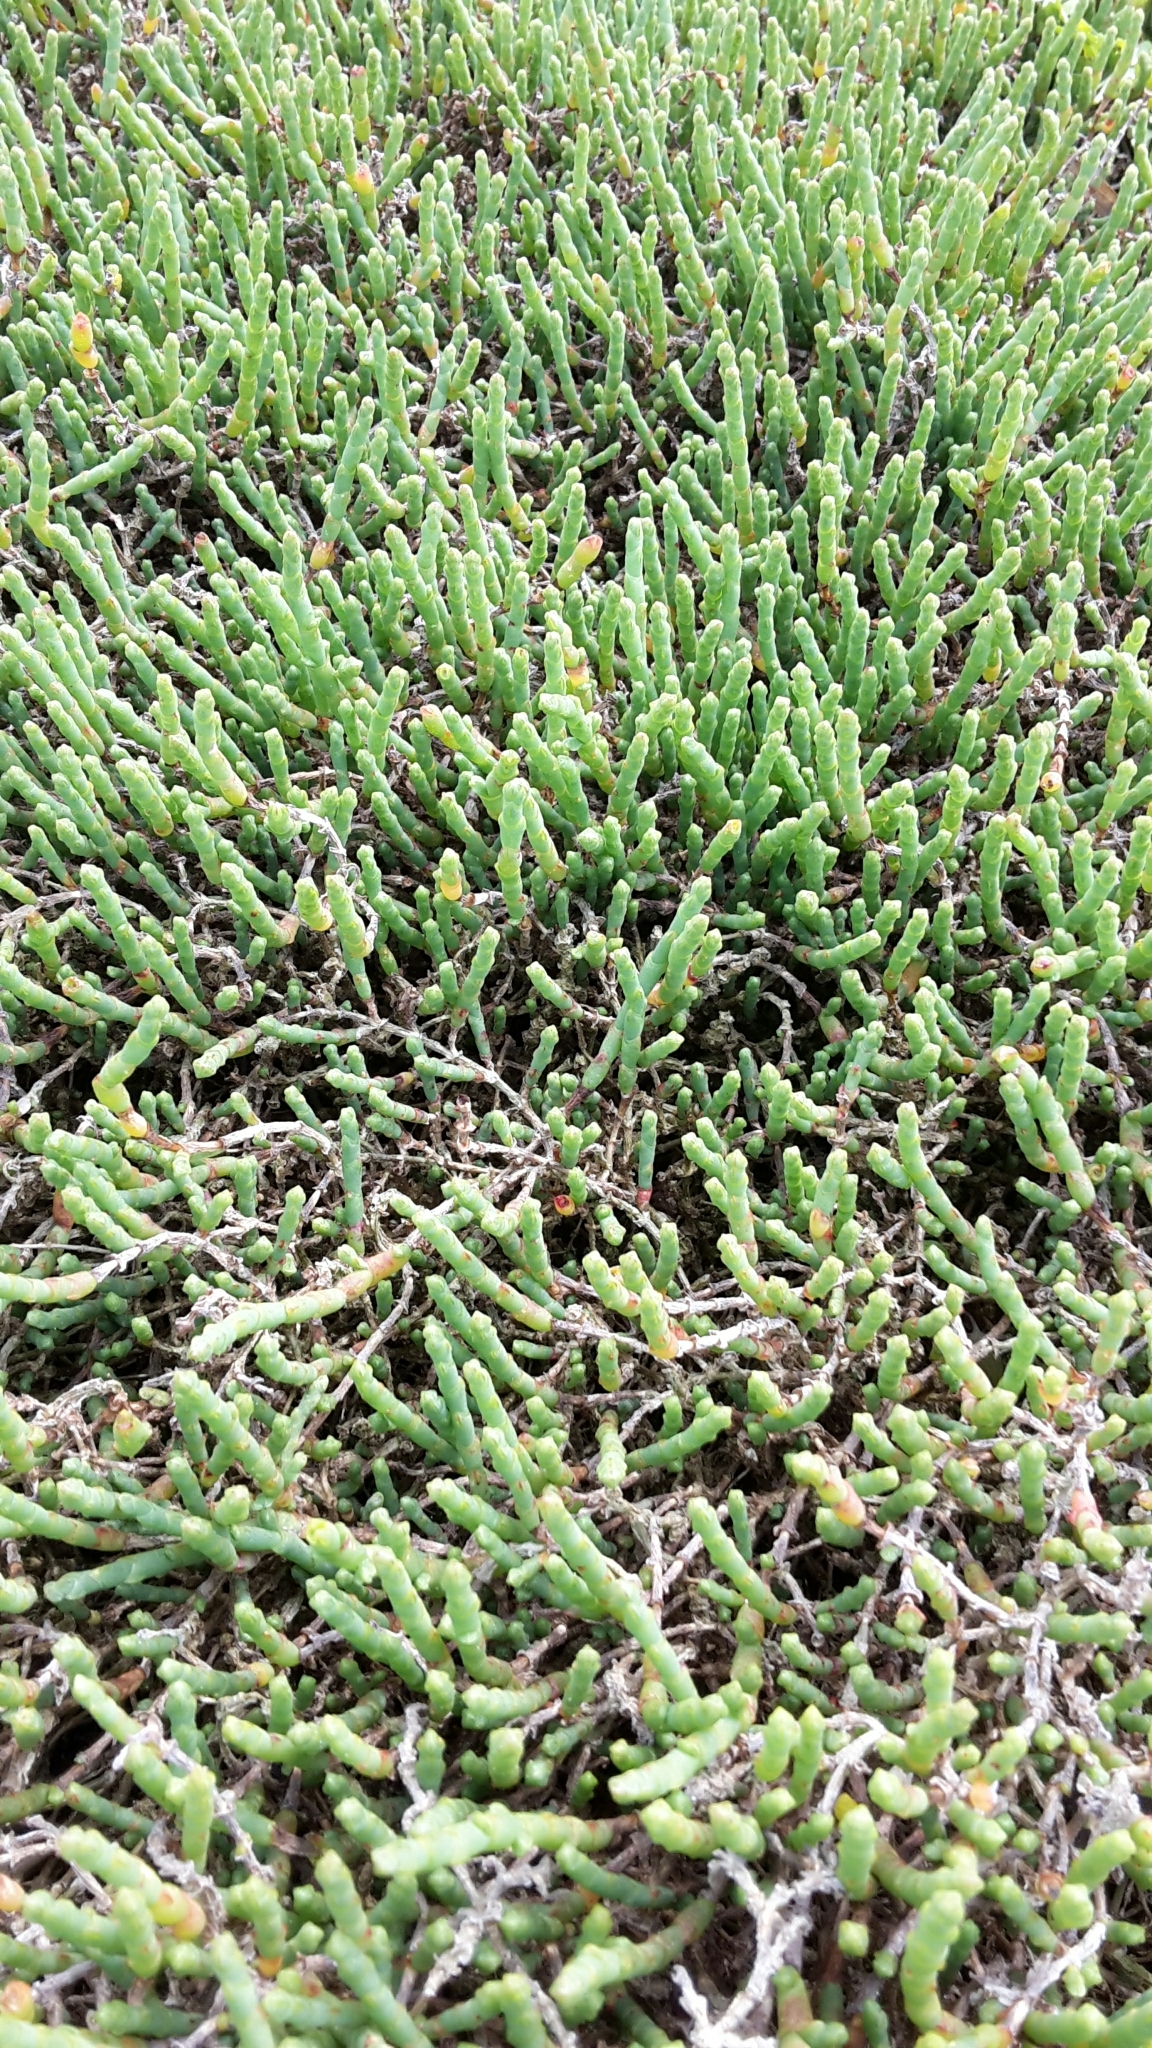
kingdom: Plantae
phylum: Tracheophyta
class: Magnoliopsida
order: Caryophyllales
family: Amaranthaceae
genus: Salicornia
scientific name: Salicornia quinqueflora
